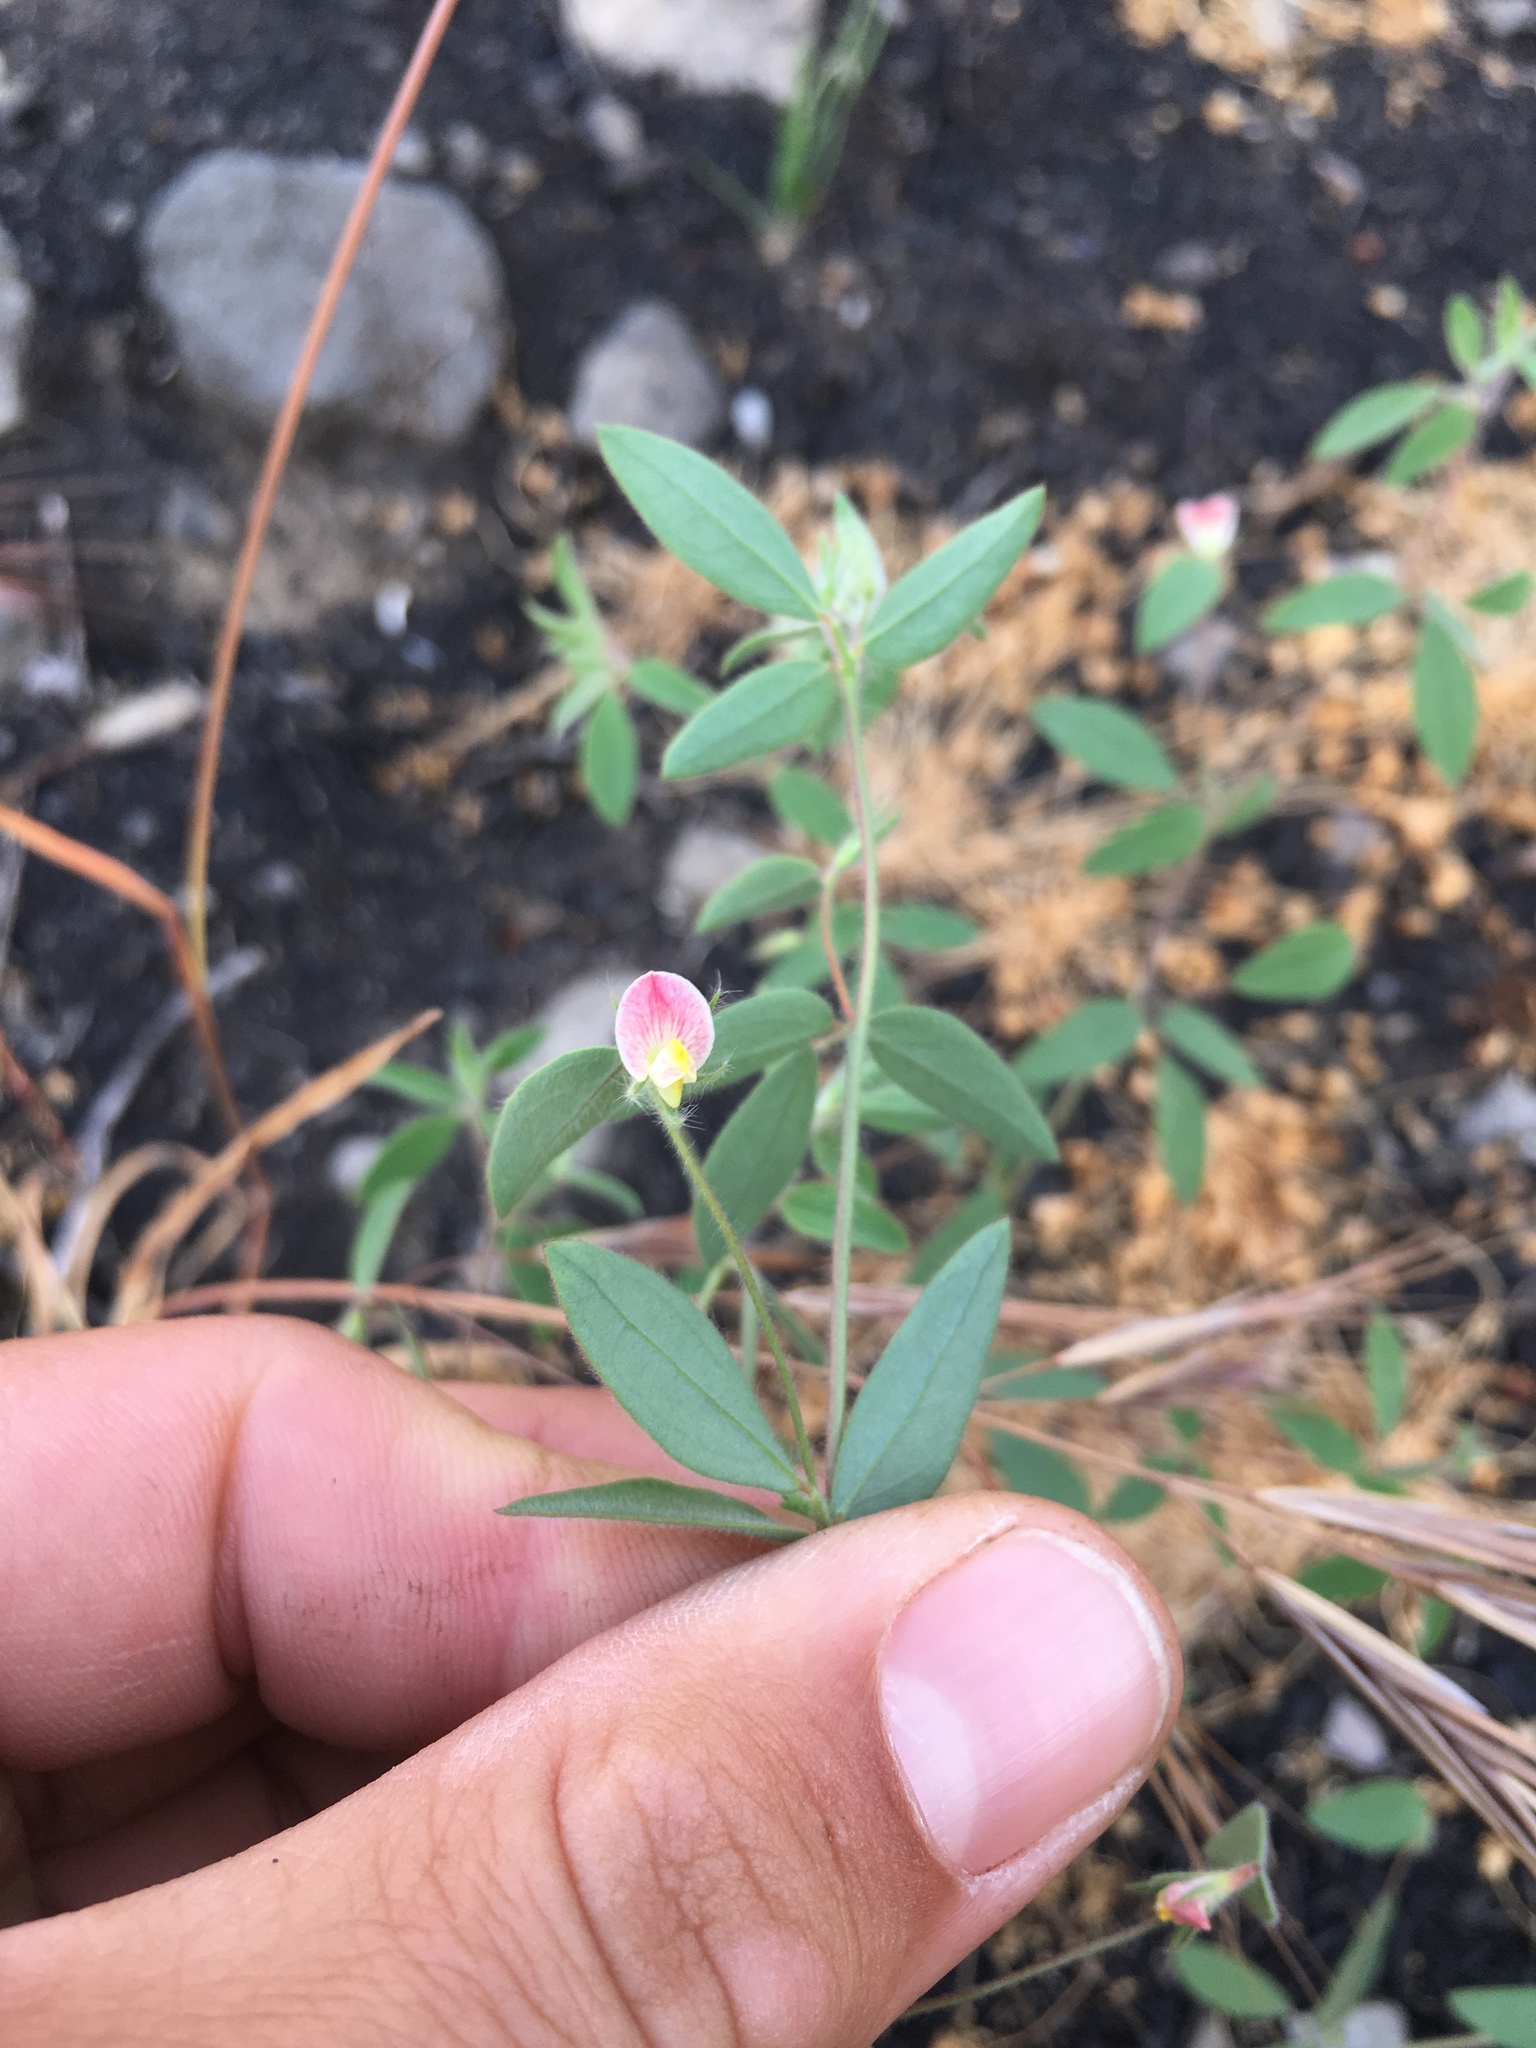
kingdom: Plantae
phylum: Tracheophyta
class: Magnoliopsida
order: Fabales
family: Fabaceae
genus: Acmispon
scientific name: Acmispon americanus
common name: American bird's-foot trefoil
